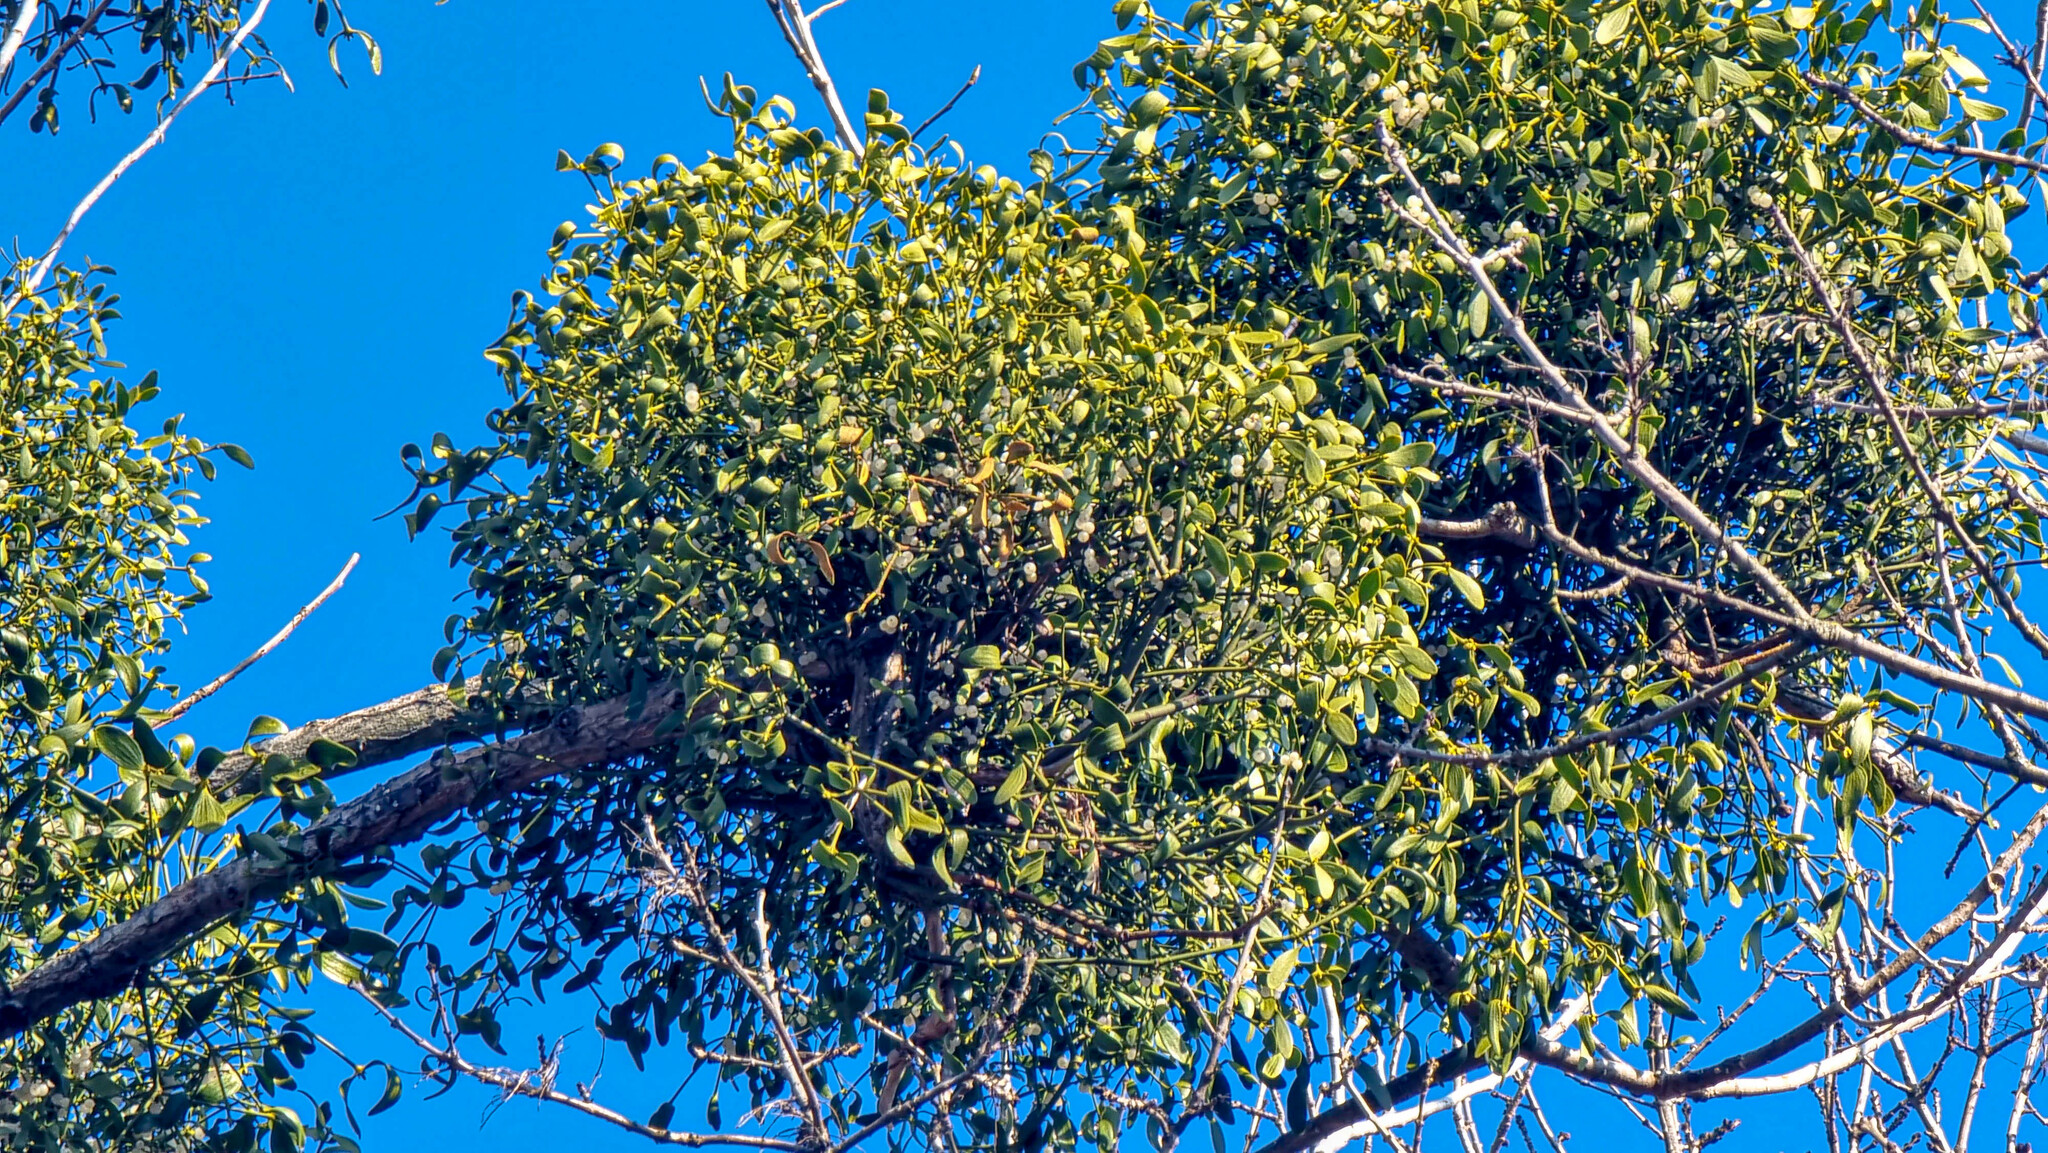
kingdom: Plantae
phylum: Tracheophyta
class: Magnoliopsida
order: Santalales
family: Viscaceae
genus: Viscum
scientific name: Viscum album
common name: Mistletoe
